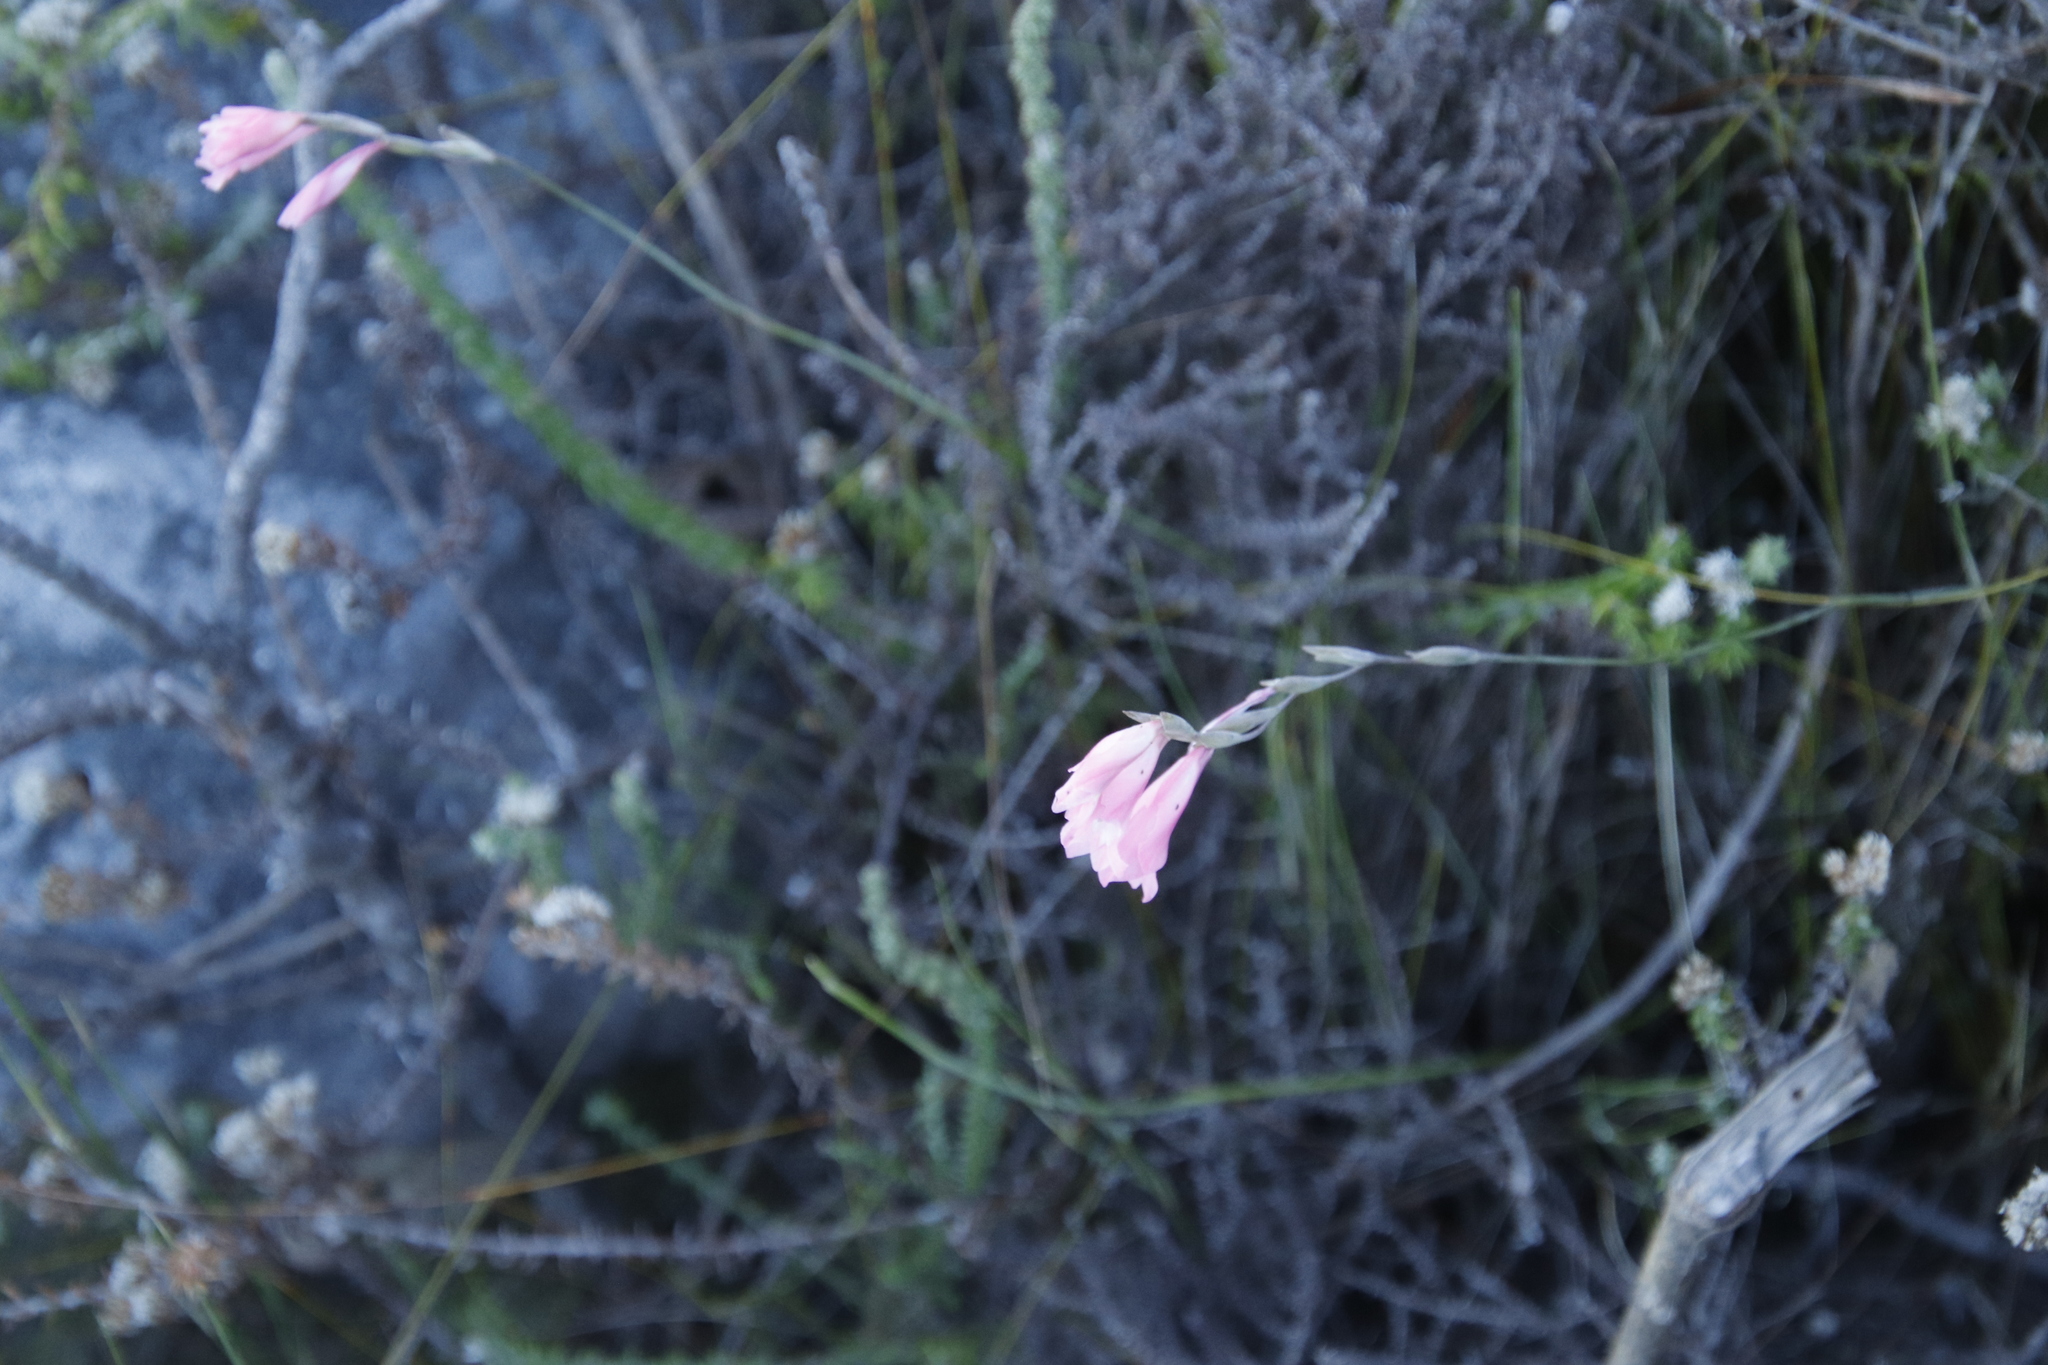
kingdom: Plantae
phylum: Tracheophyta
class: Liliopsida
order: Asparagales
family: Iridaceae
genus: Gladiolus
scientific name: Gladiolus brevifolius
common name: March pypie
